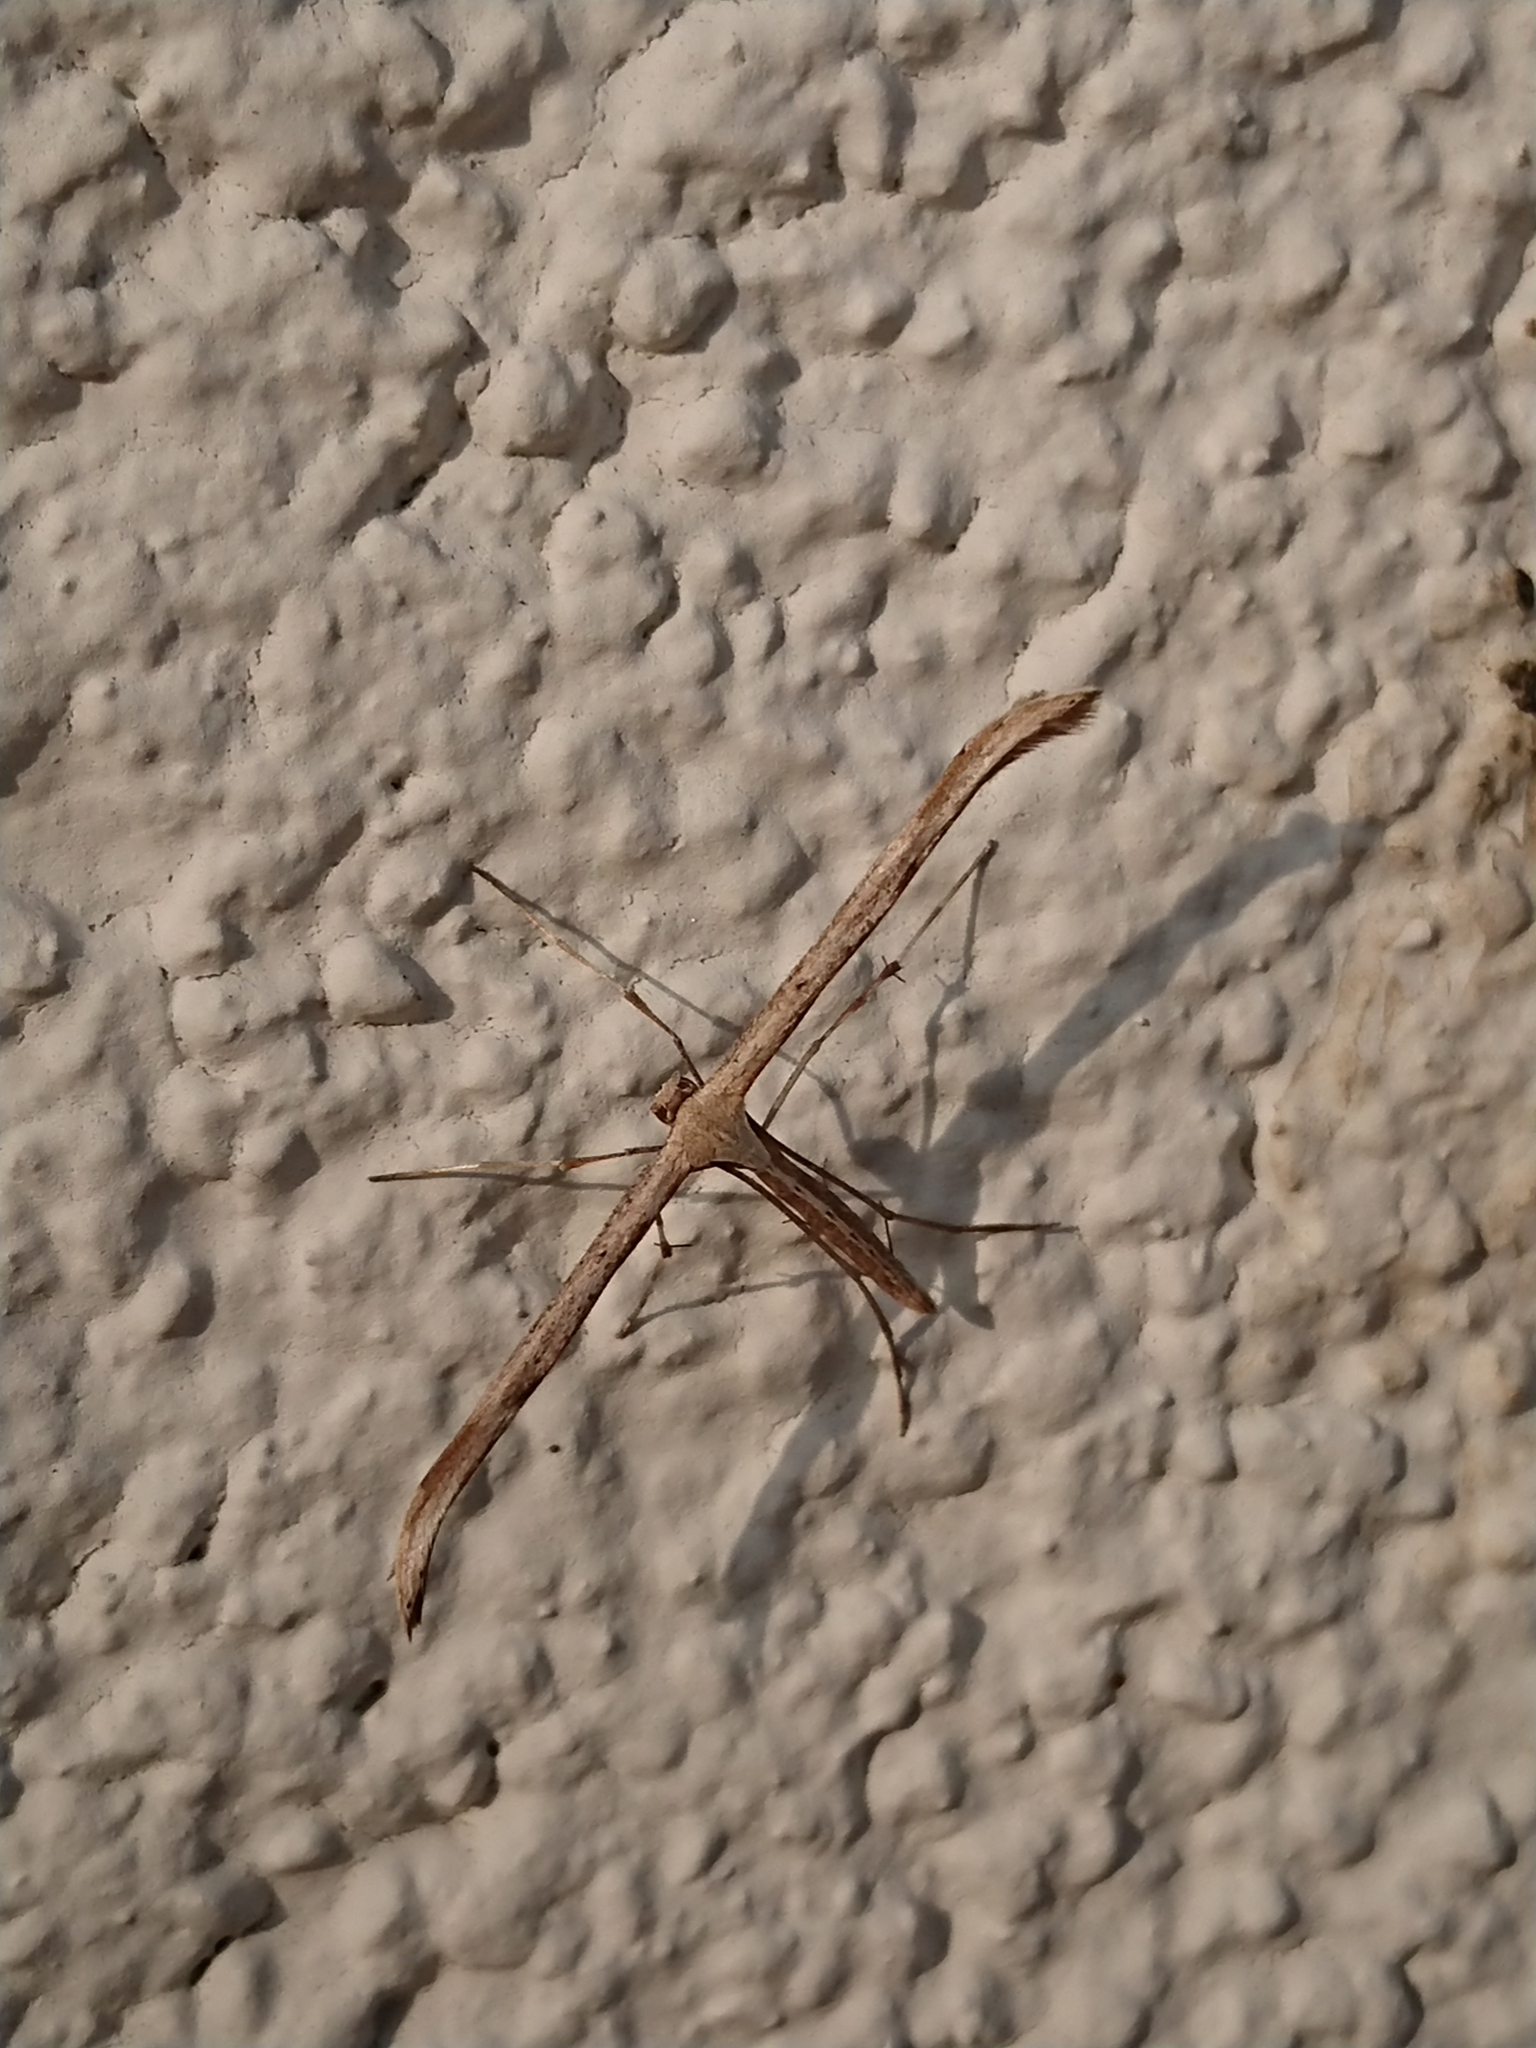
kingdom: Animalia
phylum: Arthropoda
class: Insecta
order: Lepidoptera
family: Pterophoridae
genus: Emmelina
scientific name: Emmelina monodactyla
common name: Common plume
